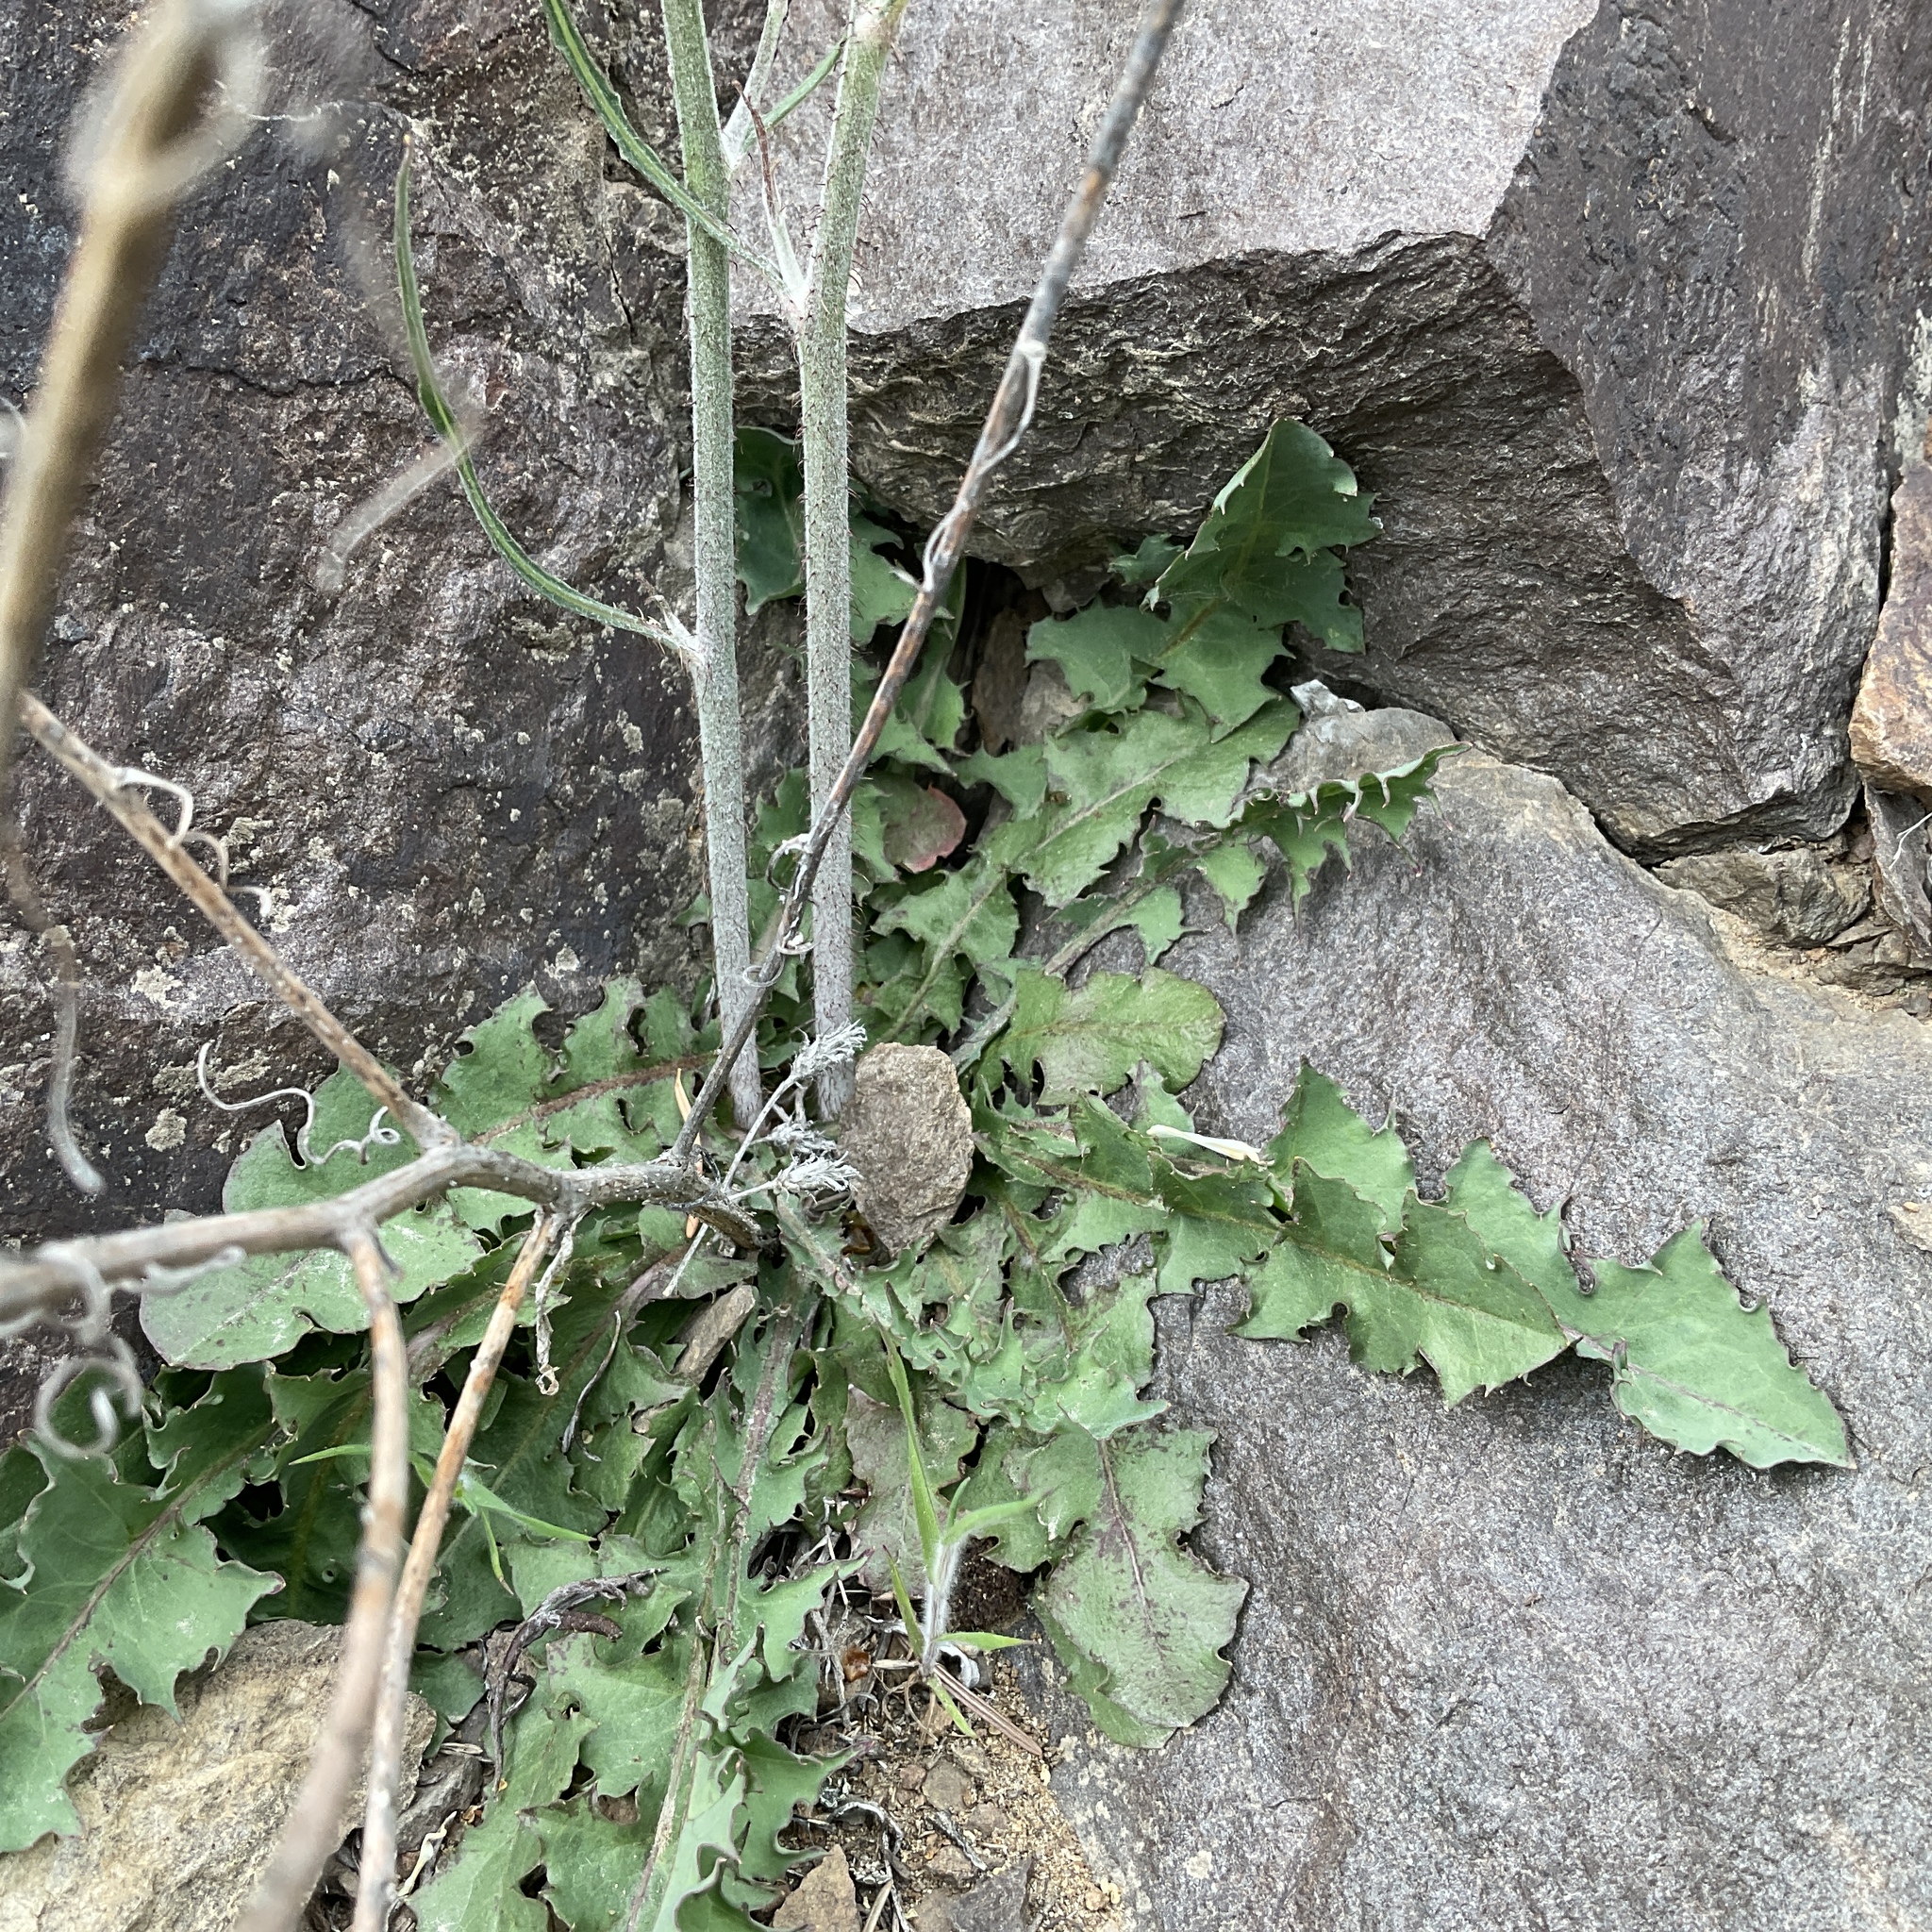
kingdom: Plantae
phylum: Tracheophyta
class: Magnoliopsida
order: Asterales
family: Asteraceae
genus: Chondrilla
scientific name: Chondrilla juncea
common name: Skeleton weed
